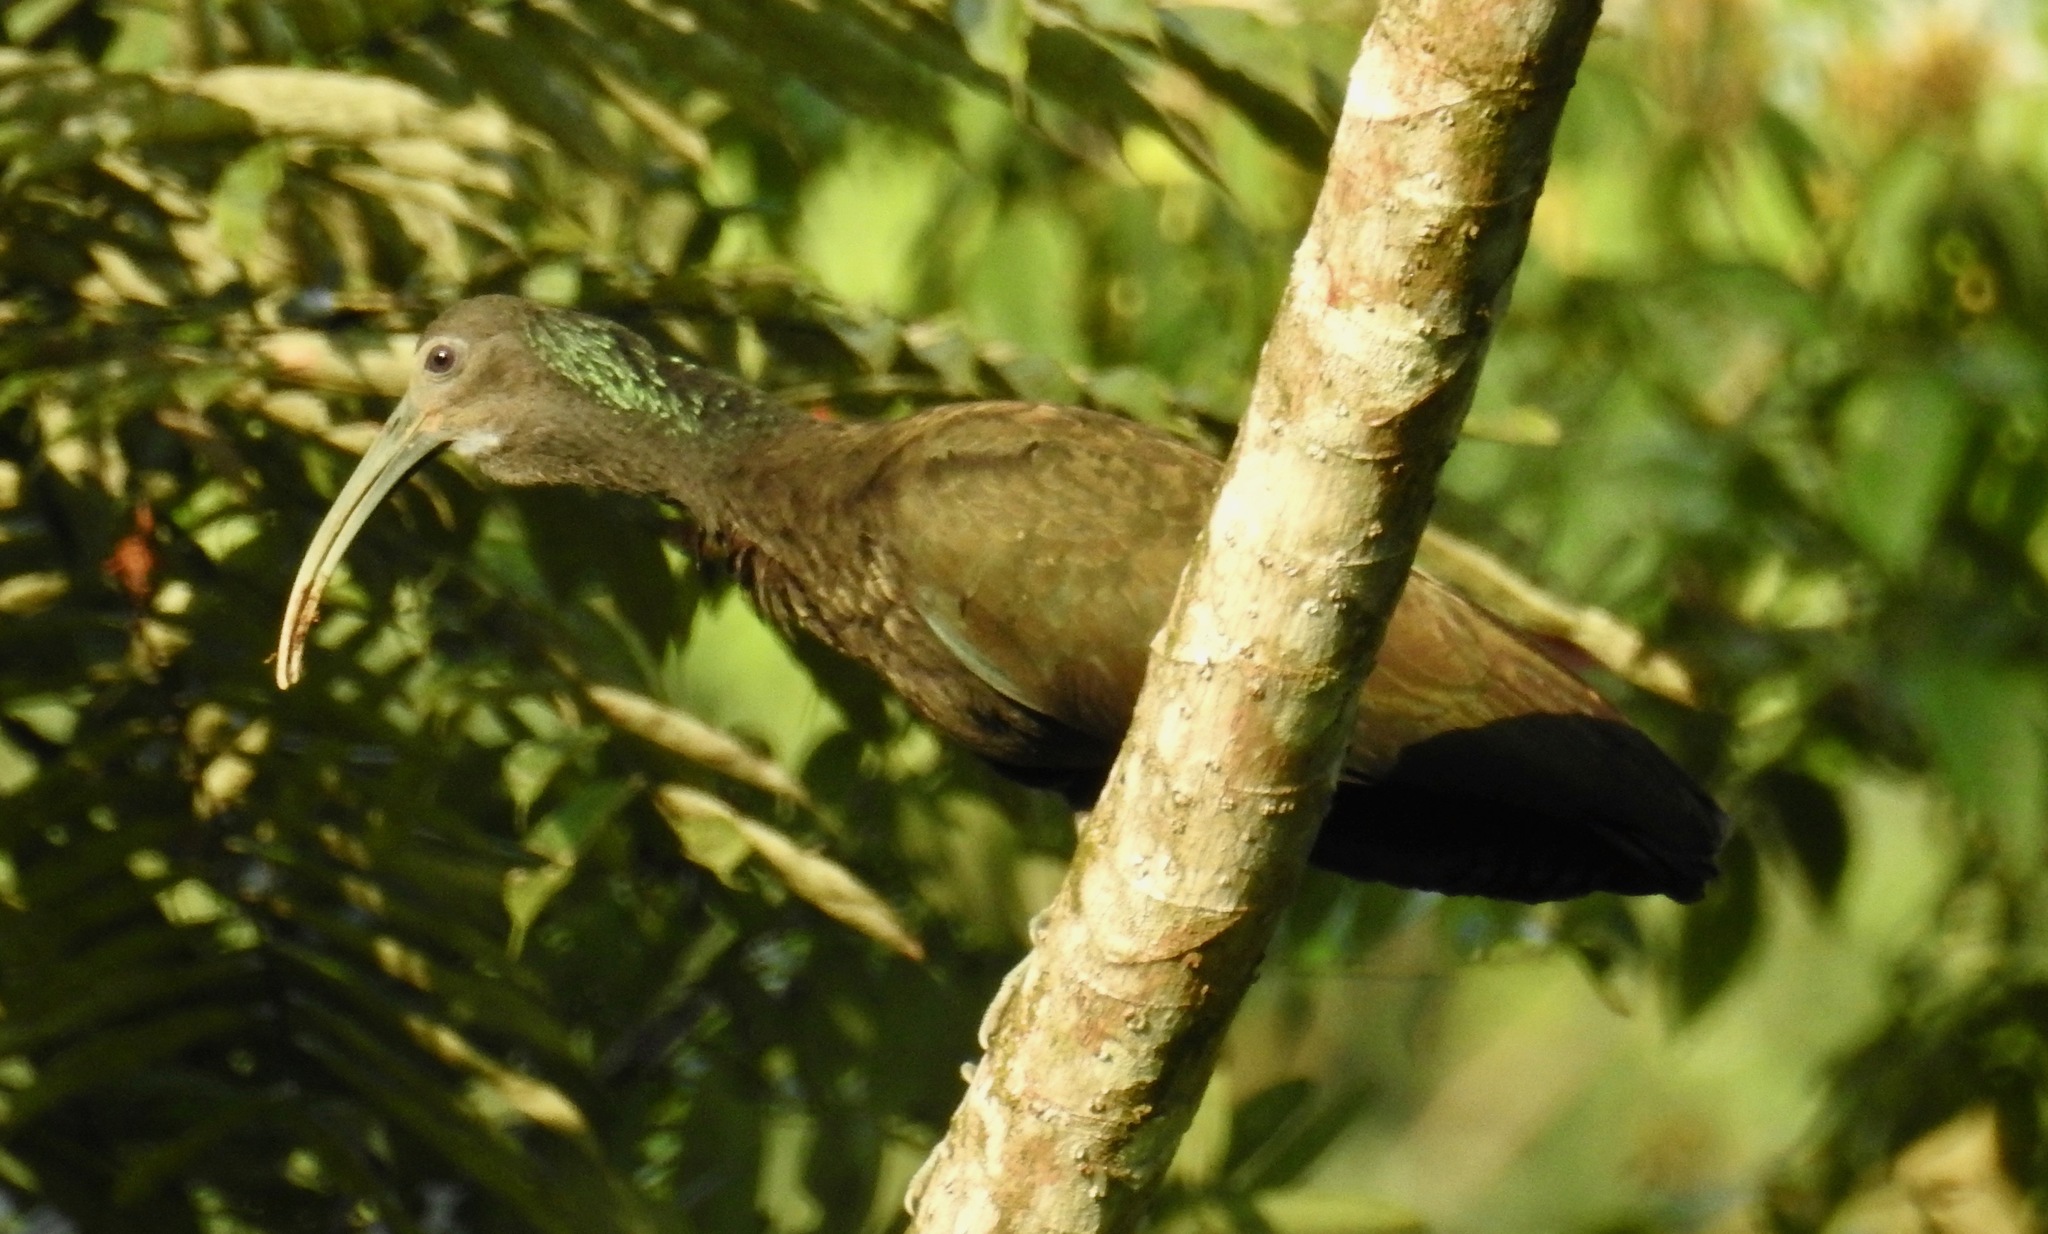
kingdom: Animalia
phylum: Chordata
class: Aves
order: Pelecaniformes
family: Threskiornithidae
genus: Mesembrinibis
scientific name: Mesembrinibis cayennensis
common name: Green ibis
